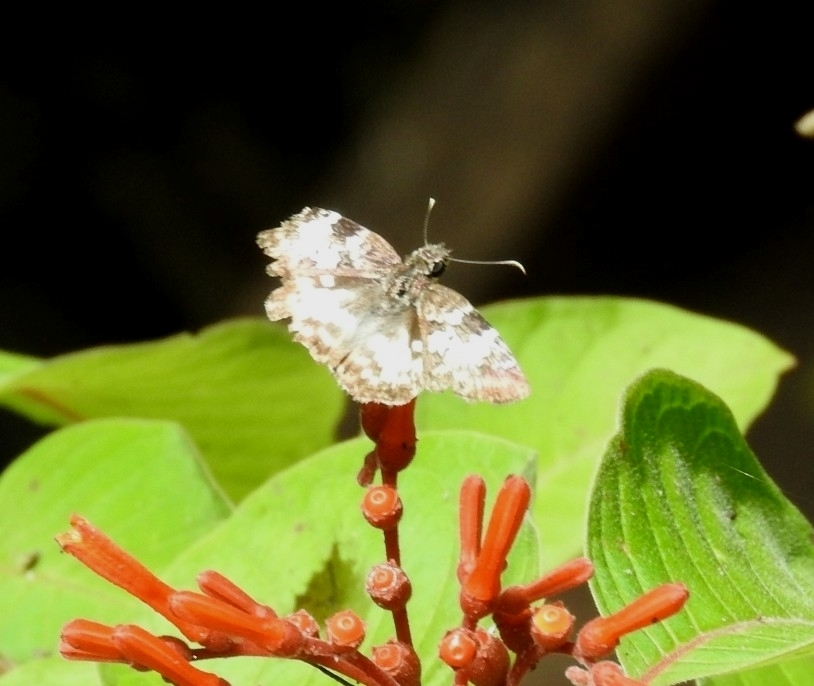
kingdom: Animalia
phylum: Arthropoda
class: Insecta
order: Lepidoptera
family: Hesperiidae
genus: Chiothion
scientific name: Chiothion georgina
